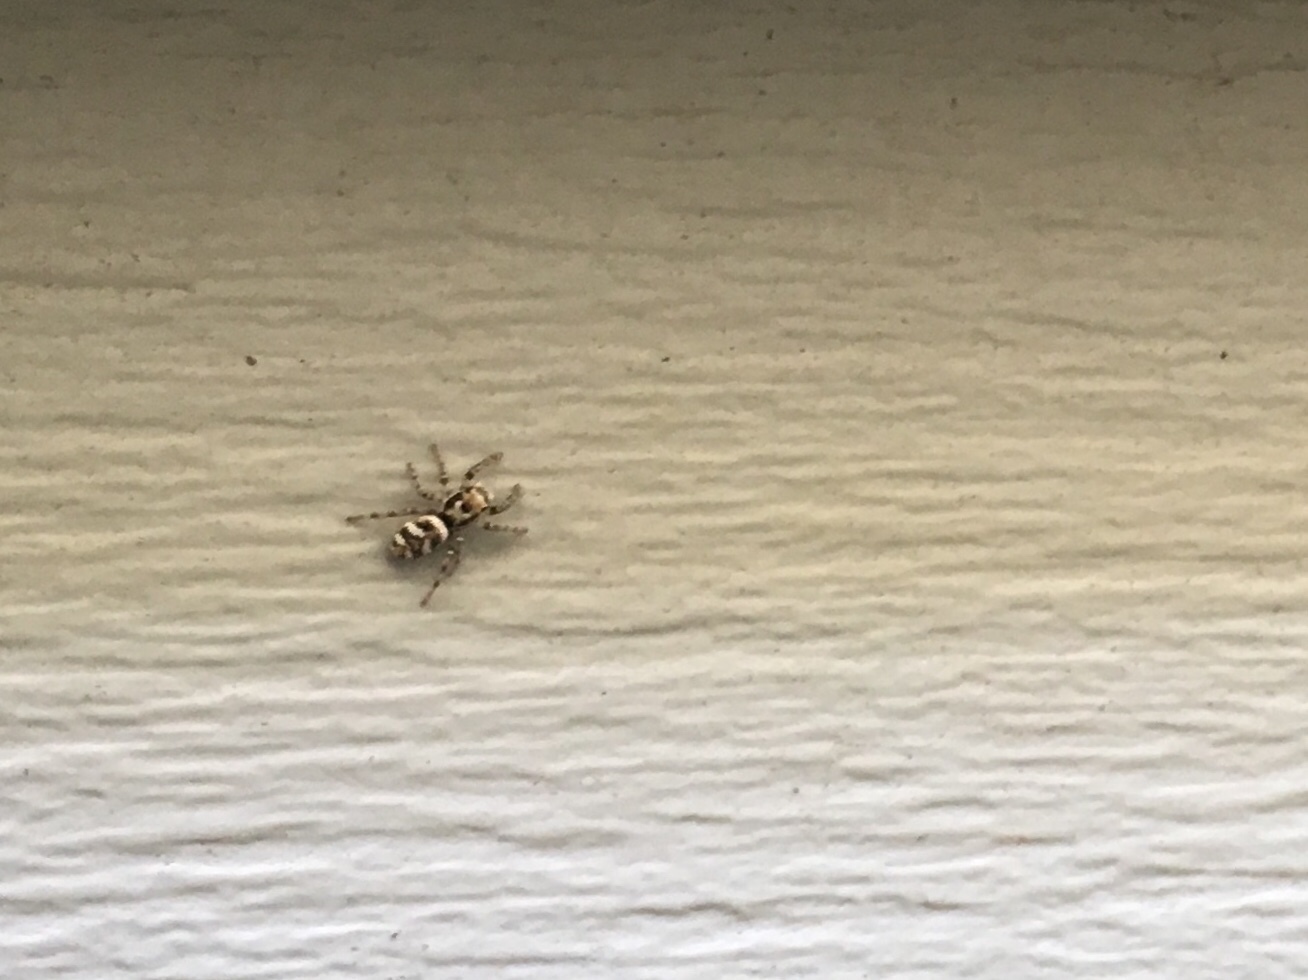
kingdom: Animalia
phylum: Arthropoda
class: Arachnida
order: Araneae
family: Salticidae
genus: Salticus
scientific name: Salticus scenicus
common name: Zebra jumper
